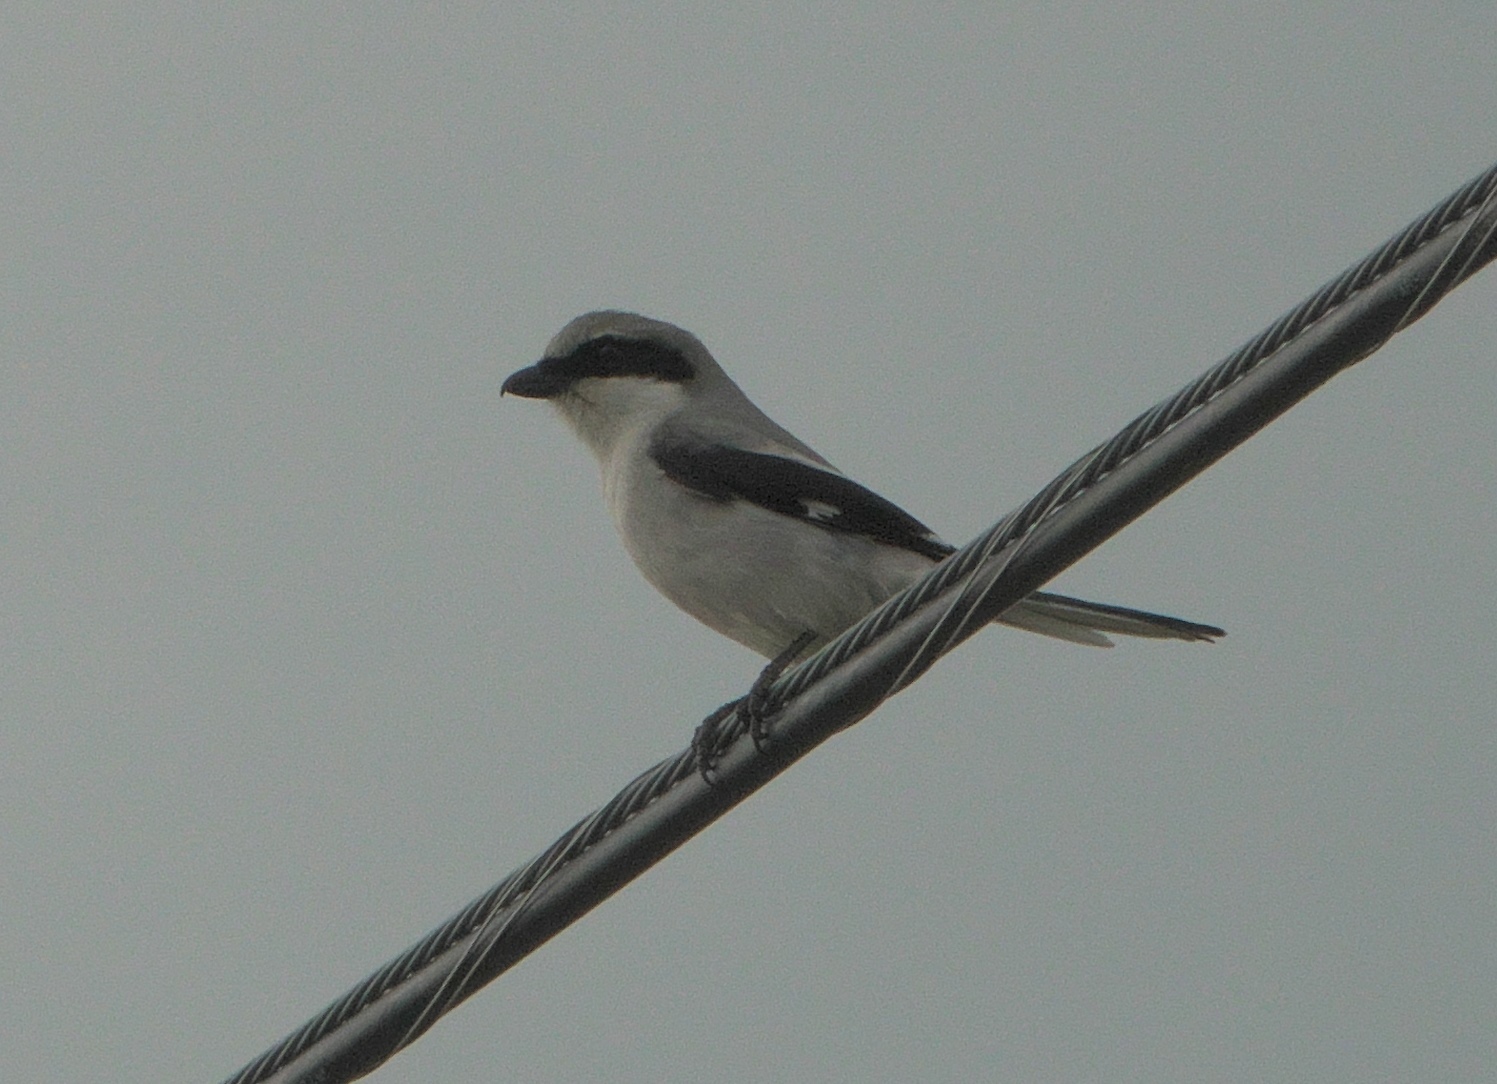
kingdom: Animalia
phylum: Chordata
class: Aves
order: Passeriformes
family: Laniidae
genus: Lanius
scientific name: Lanius ludovicianus
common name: Loggerhead shrike
